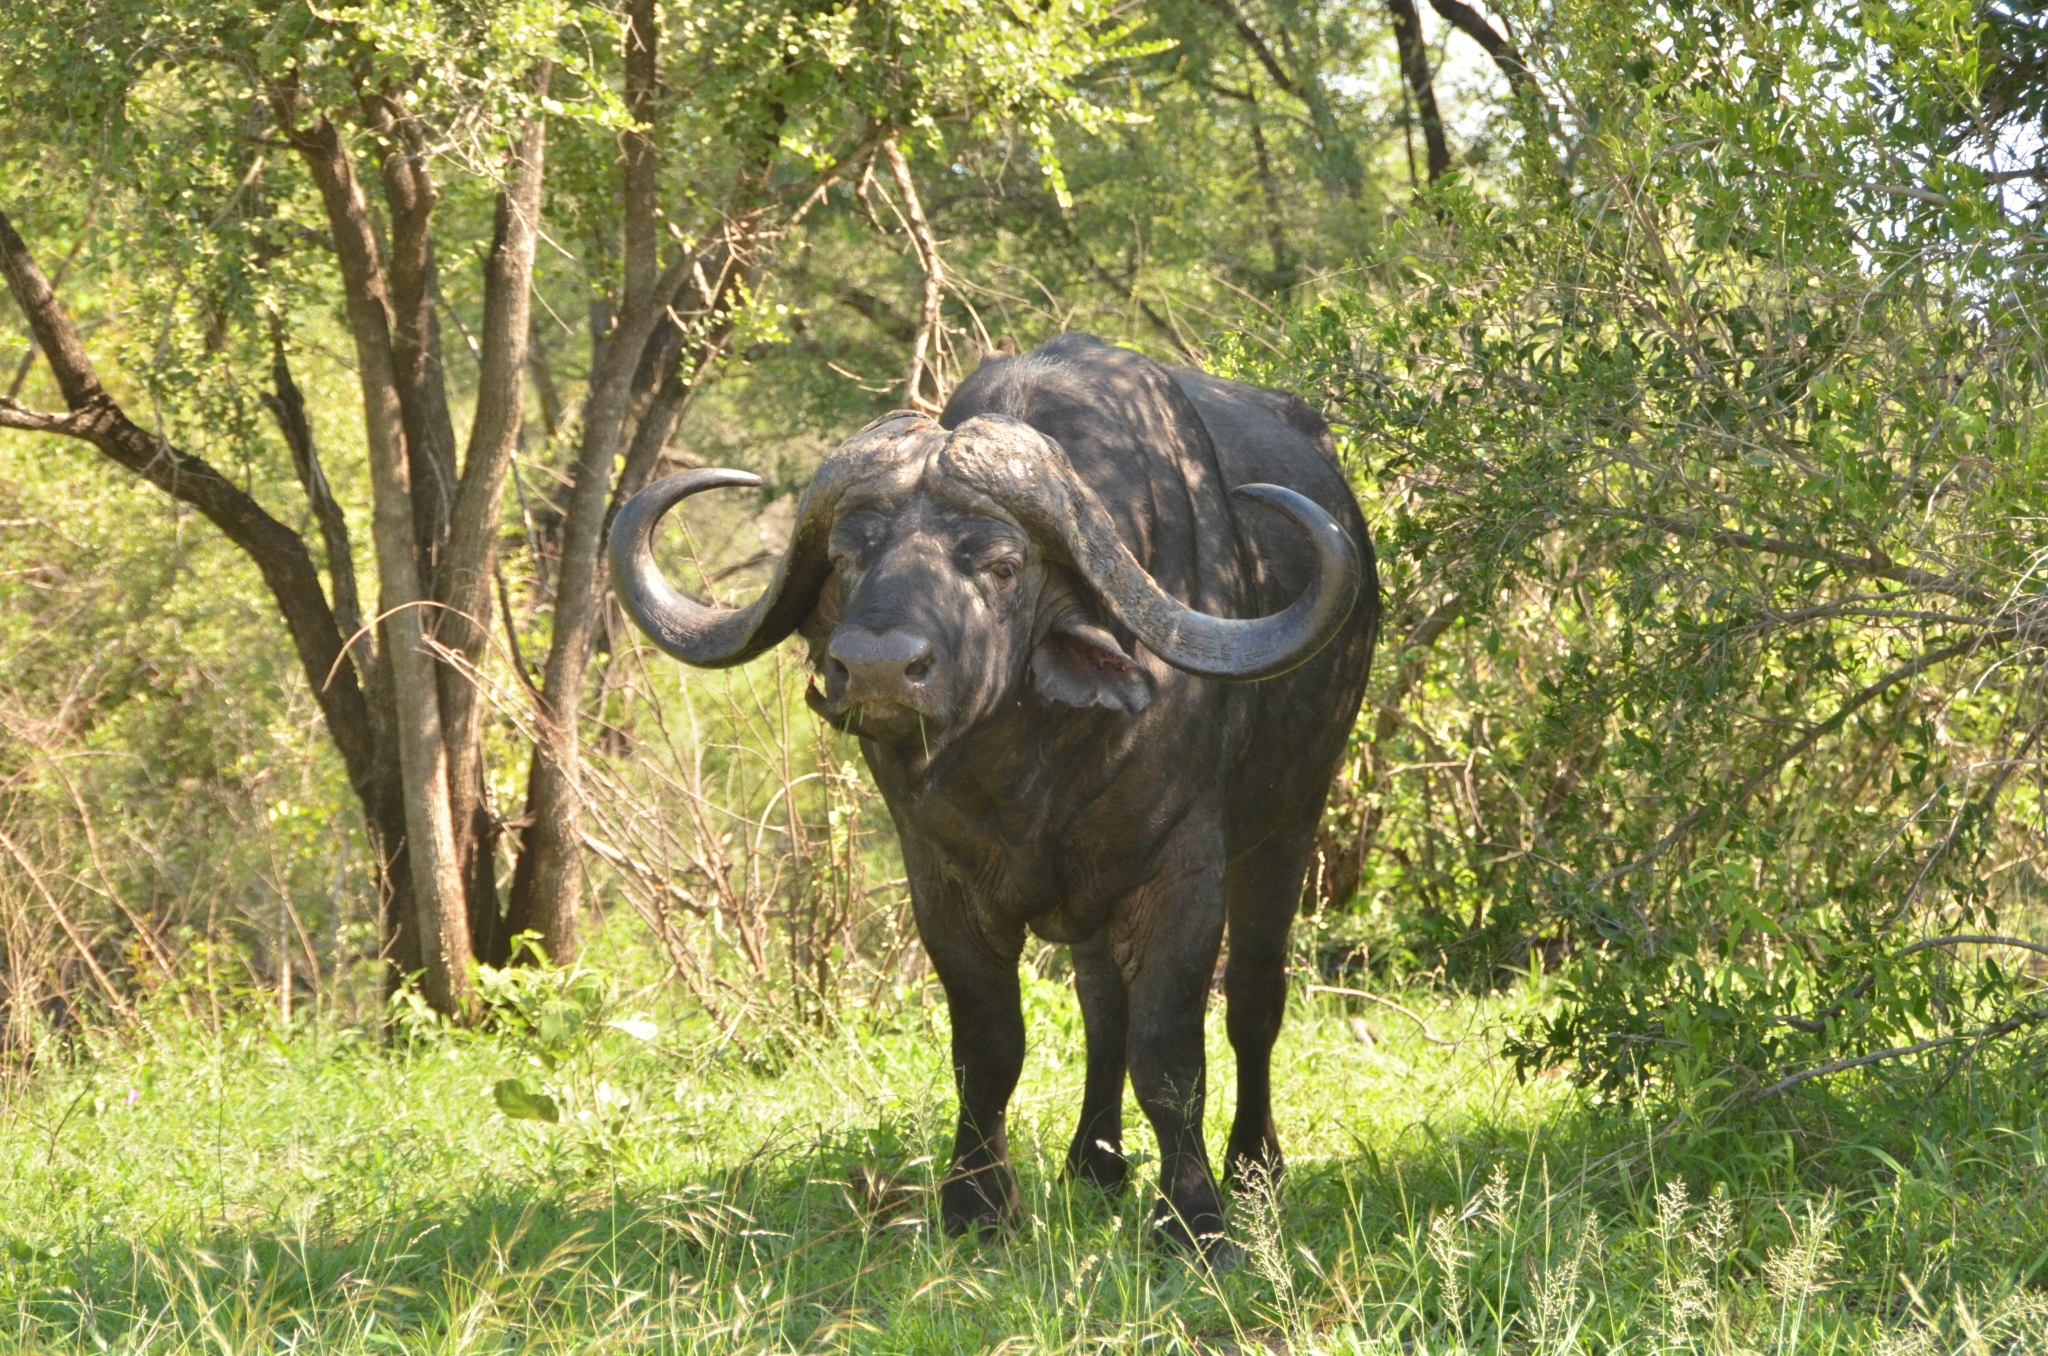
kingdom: Animalia
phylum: Chordata
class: Mammalia
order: Artiodactyla
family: Bovidae
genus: Syncerus
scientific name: Syncerus caffer
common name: African buffalo
